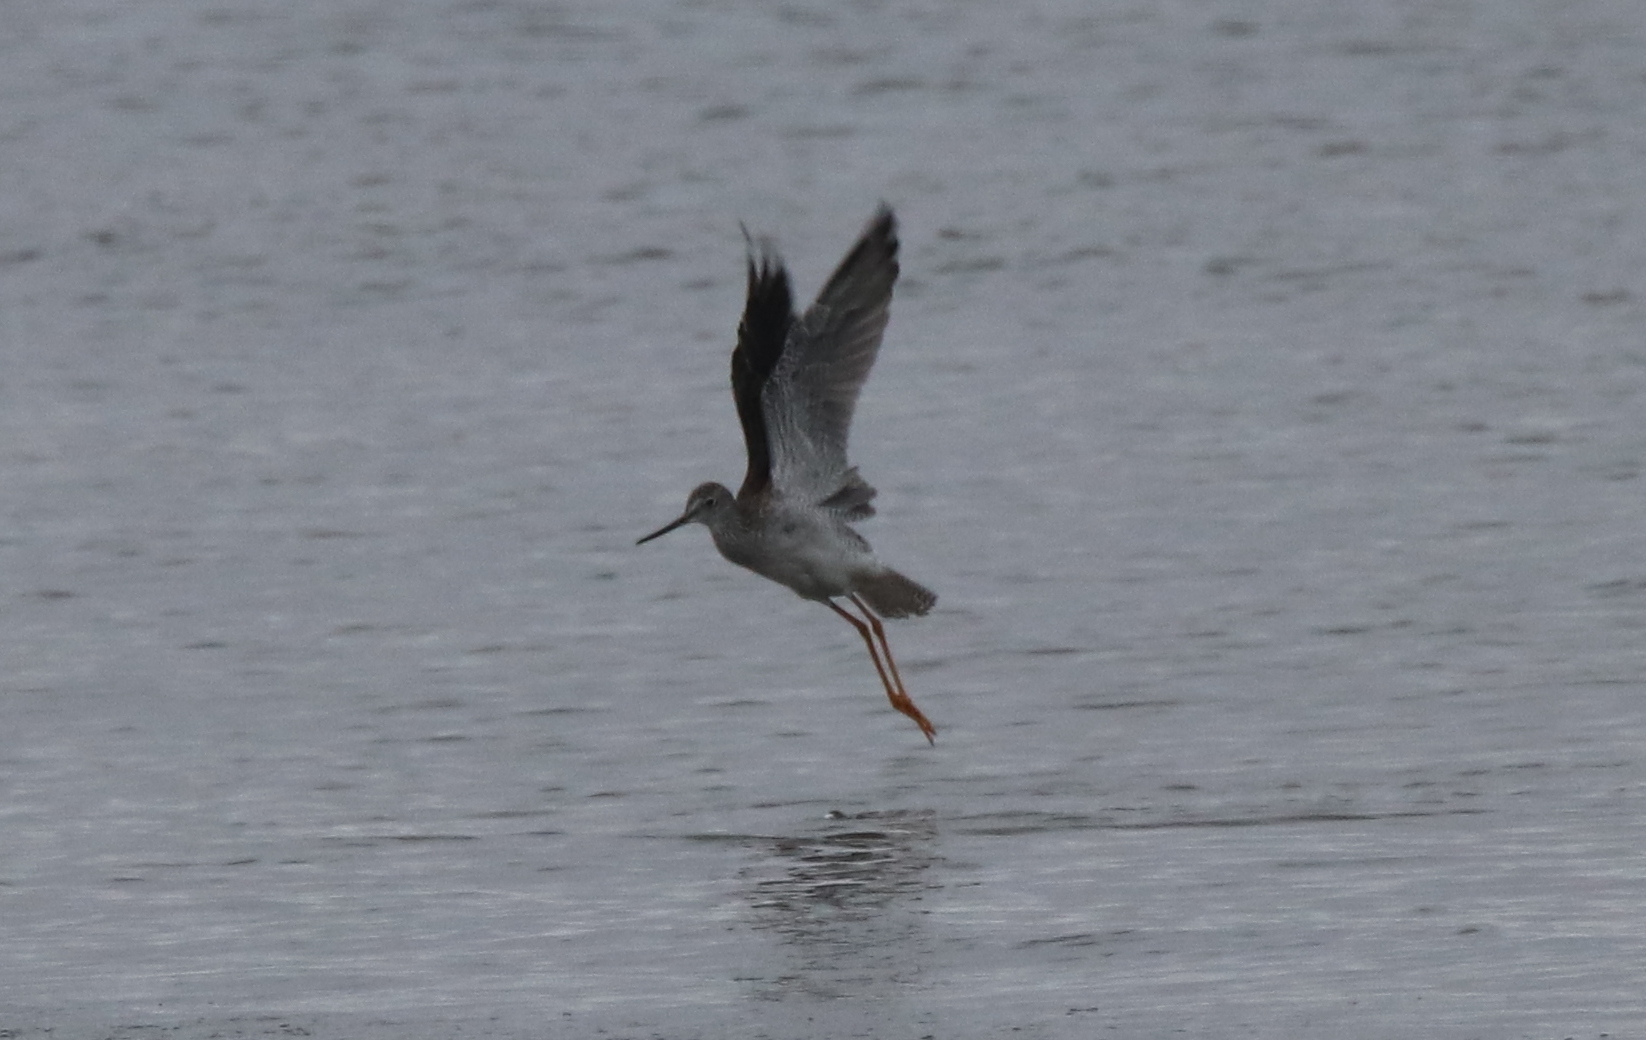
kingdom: Animalia
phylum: Chordata
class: Aves
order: Charadriiformes
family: Scolopacidae
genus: Tringa
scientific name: Tringa melanoleuca
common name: Greater yellowlegs
